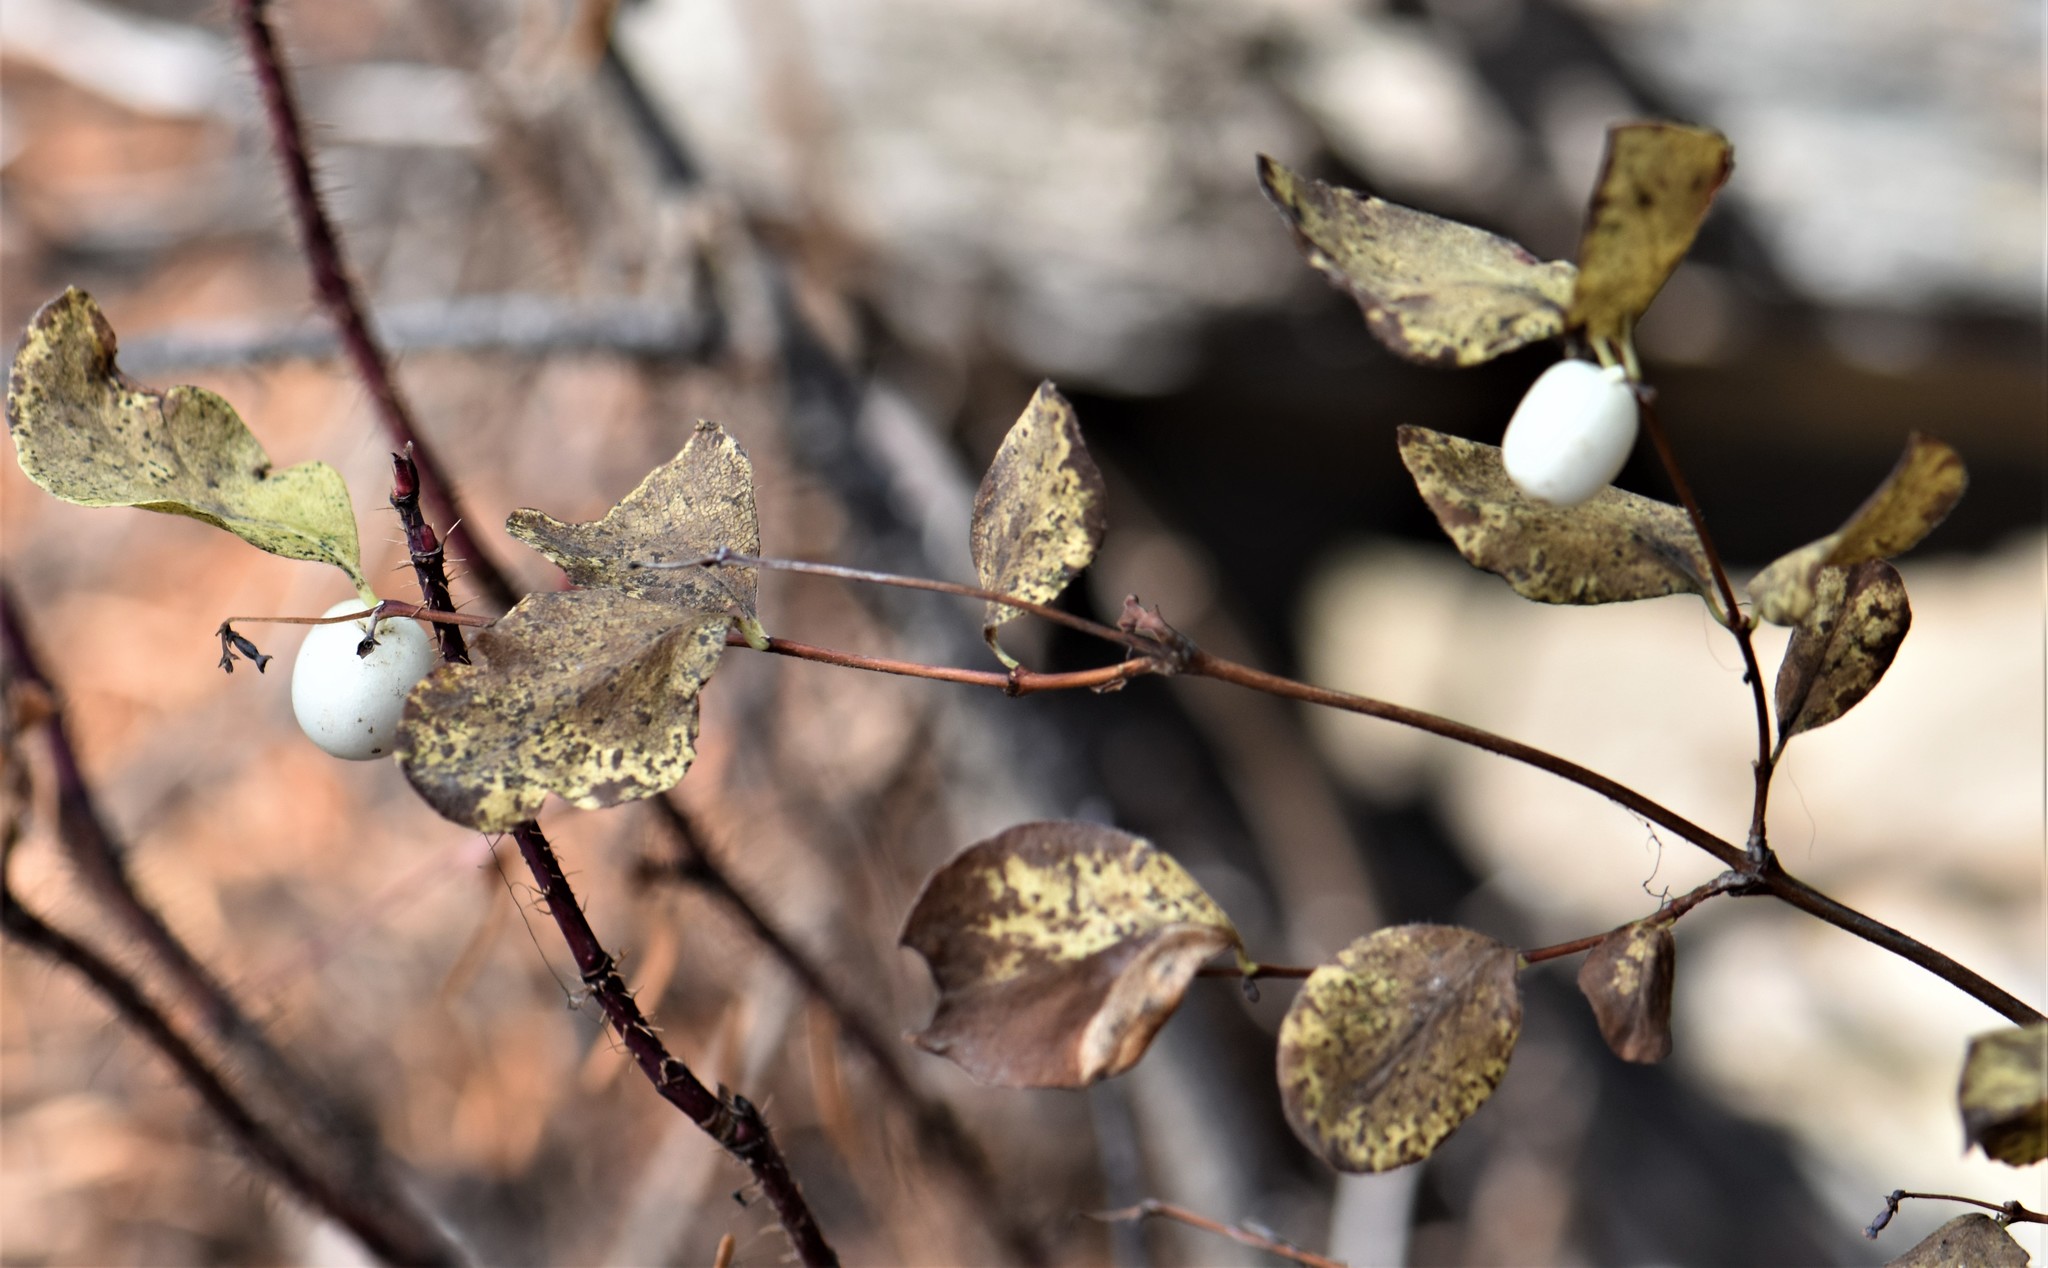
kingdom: Plantae
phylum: Tracheophyta
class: Magnoliopsida
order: Dipsacales
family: Caprifoliaceae
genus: Symphoricarpos
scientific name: Symphoricarpos albus
